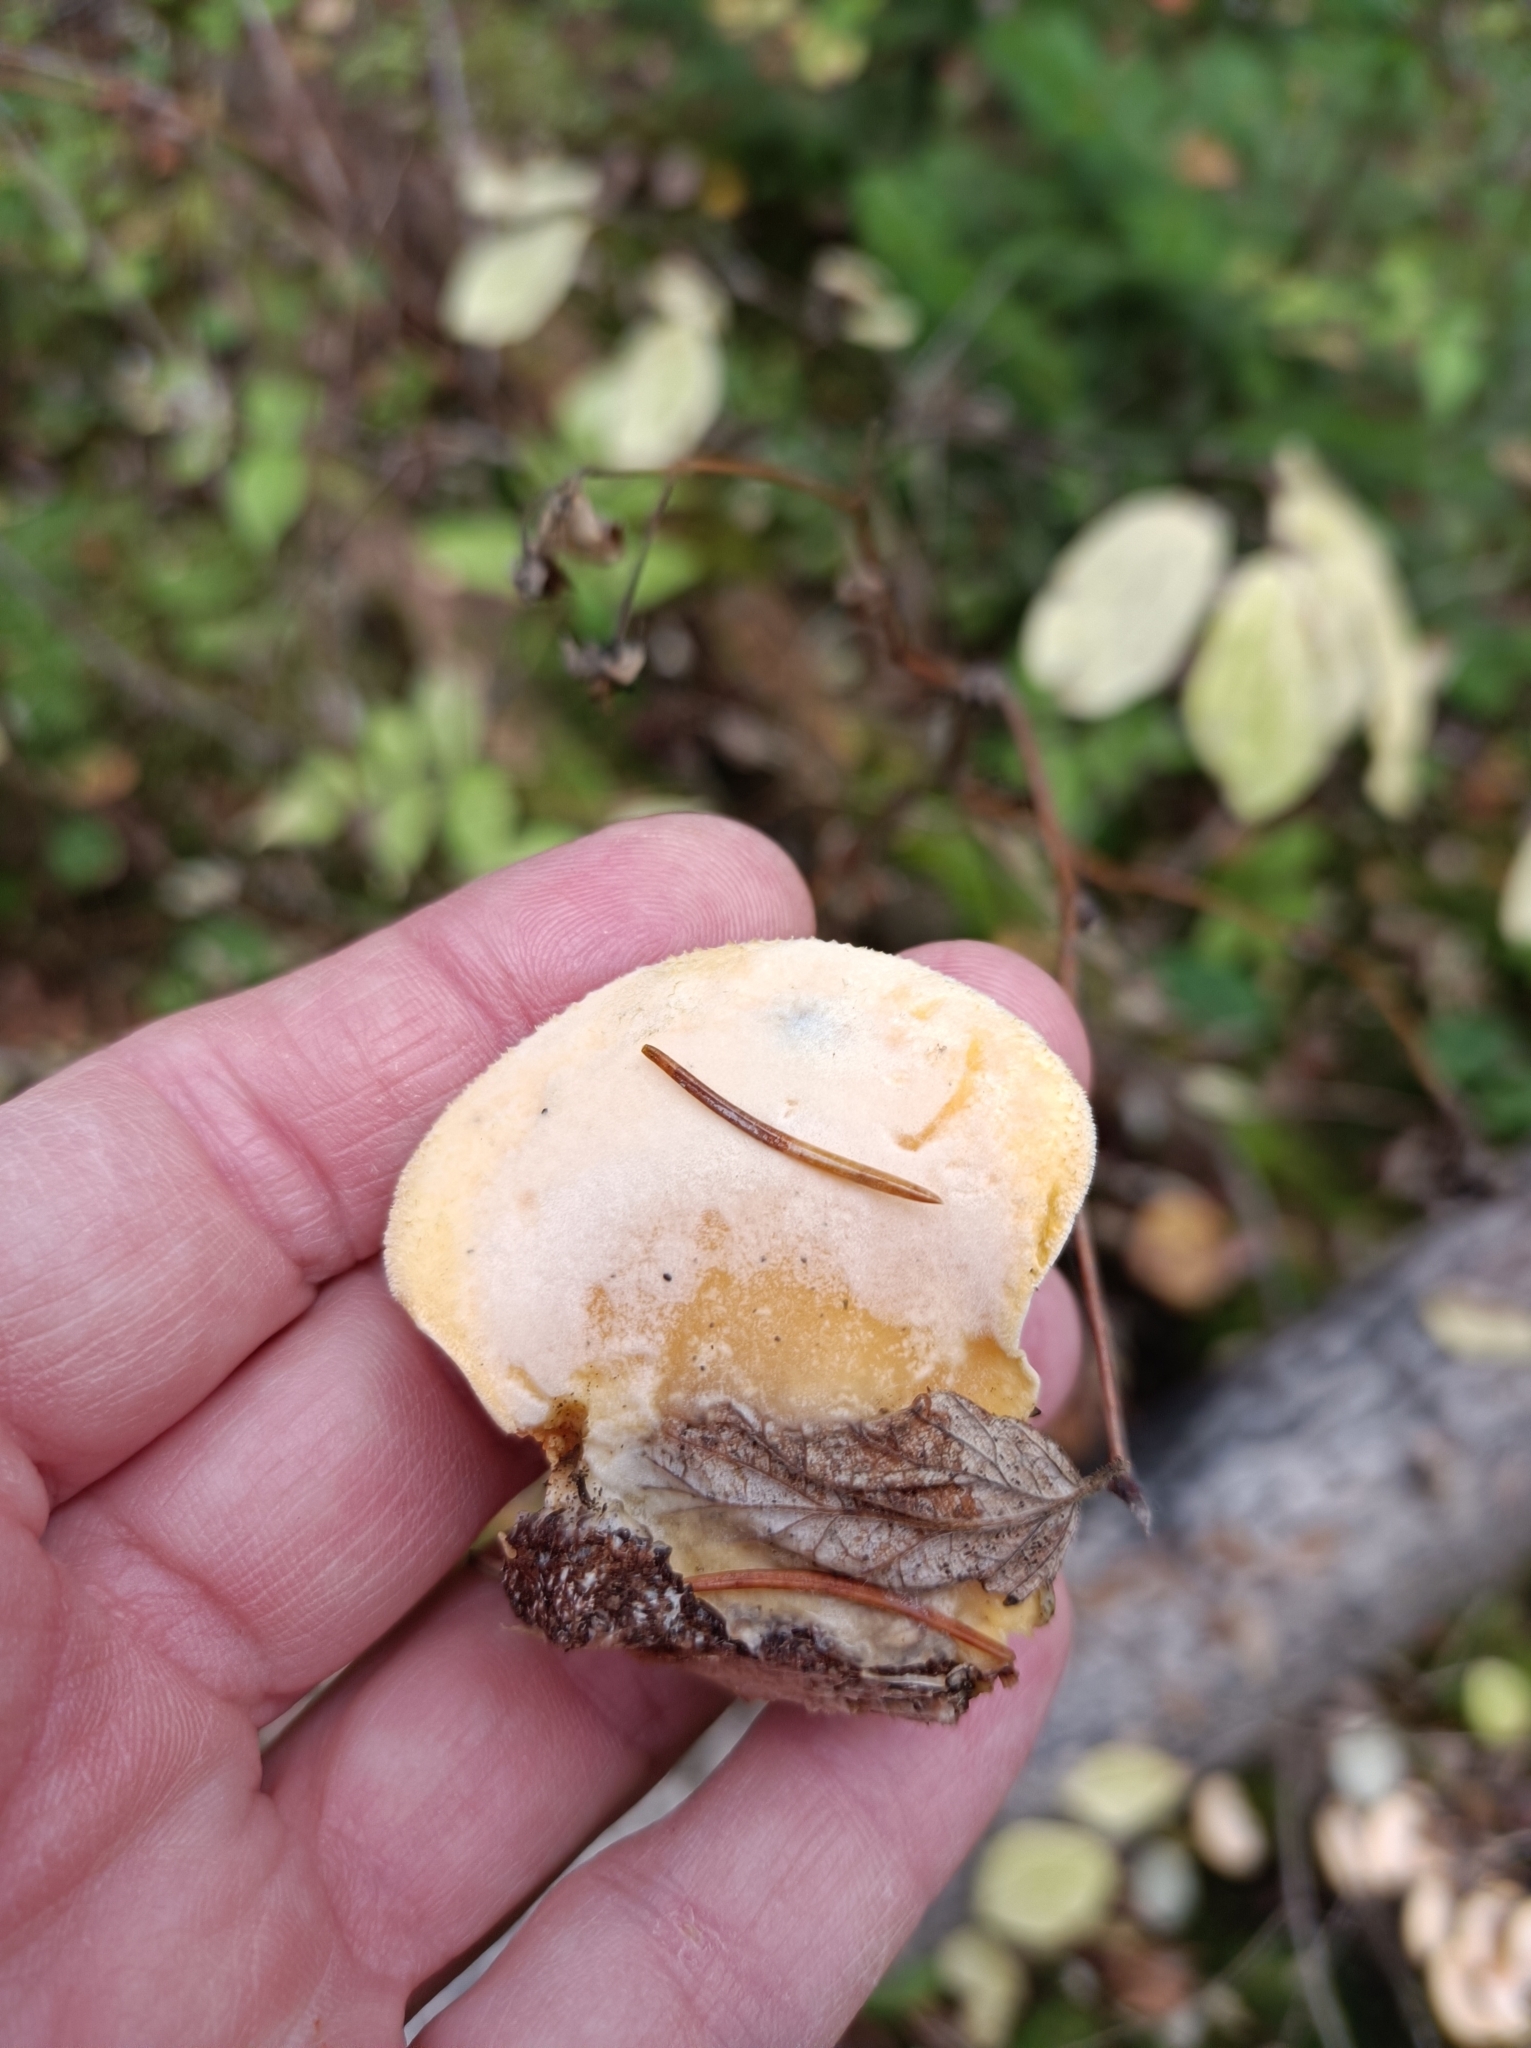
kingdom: Fungi
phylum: Basidiomycota
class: Agaricomycetes
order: Agaricales
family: Phyllotopsidaceae
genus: Phyllotopsis
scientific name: Phyllotopsis nidulans
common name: Orange mock oyster
